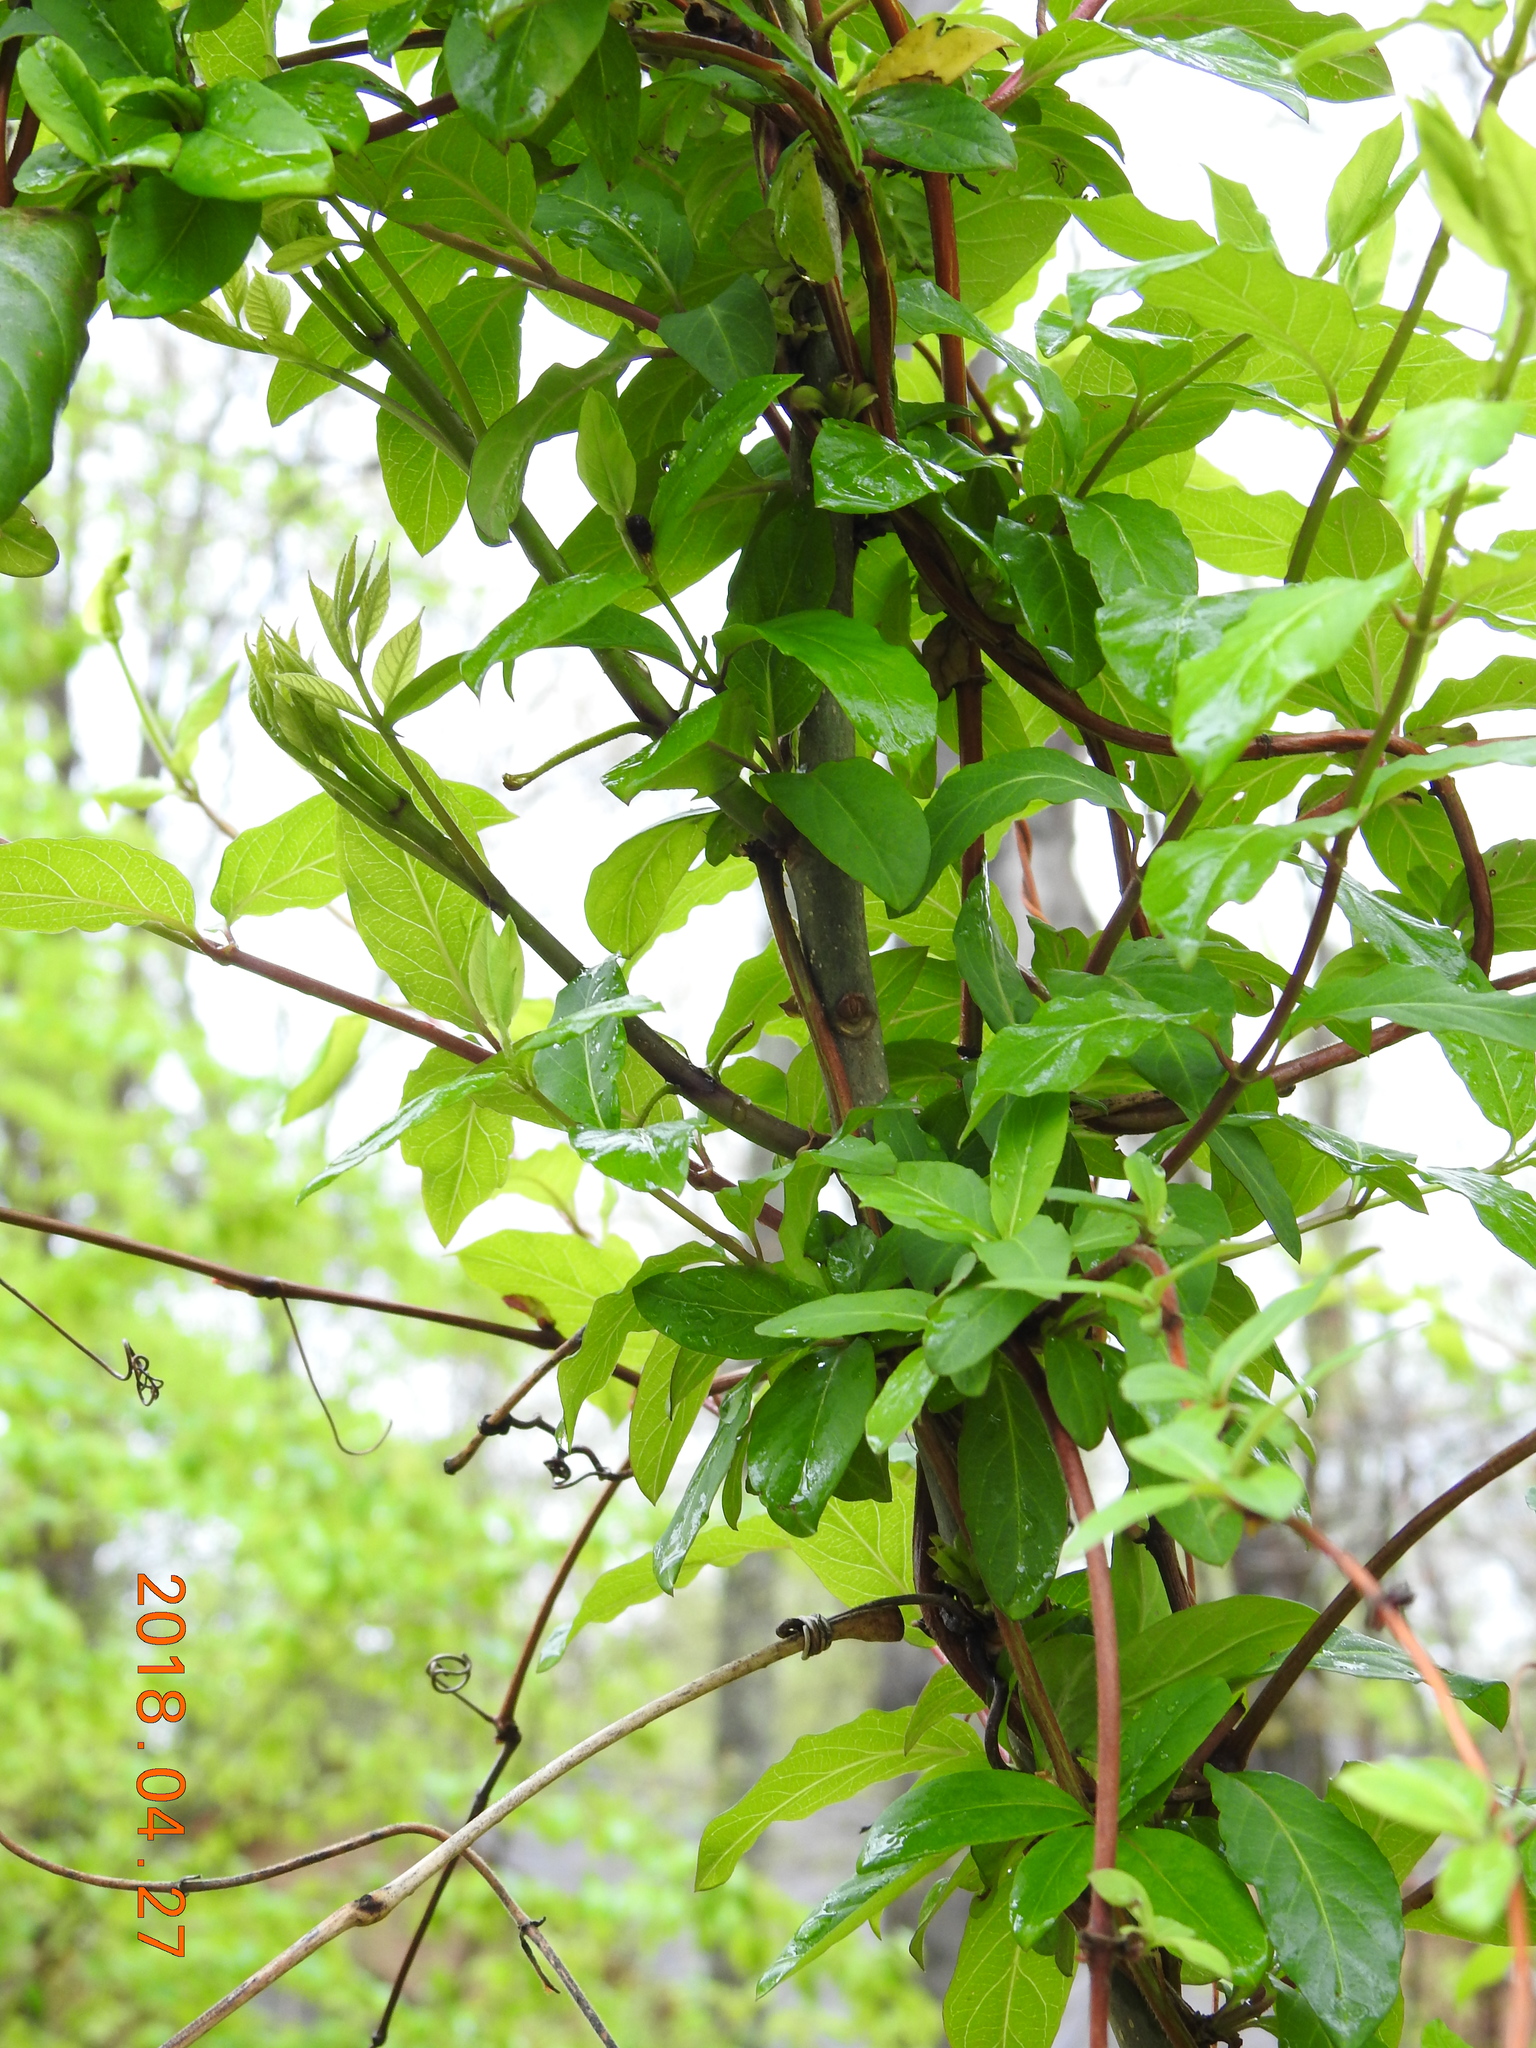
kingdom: Plantae
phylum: Tracheophyta
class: Magnoliopsida
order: Dipsacales
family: Caprifoliaceae
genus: Lonicera
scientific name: Lonicera japonica
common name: Japanese honeysuckle
